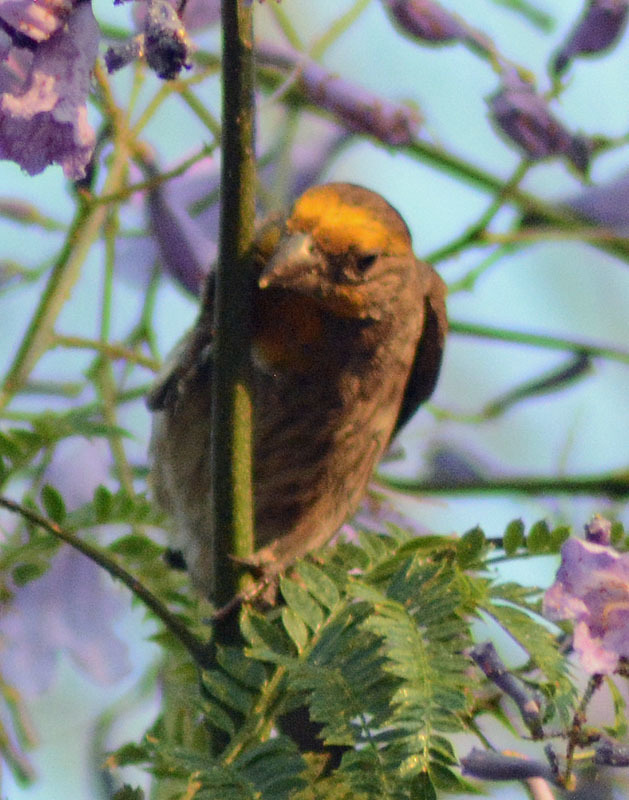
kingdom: Animalia
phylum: Chordata
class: Aves
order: Passeriformes
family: Fringillidae
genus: Haemorhous
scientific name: Haemorhous mexicanus
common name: House finch
